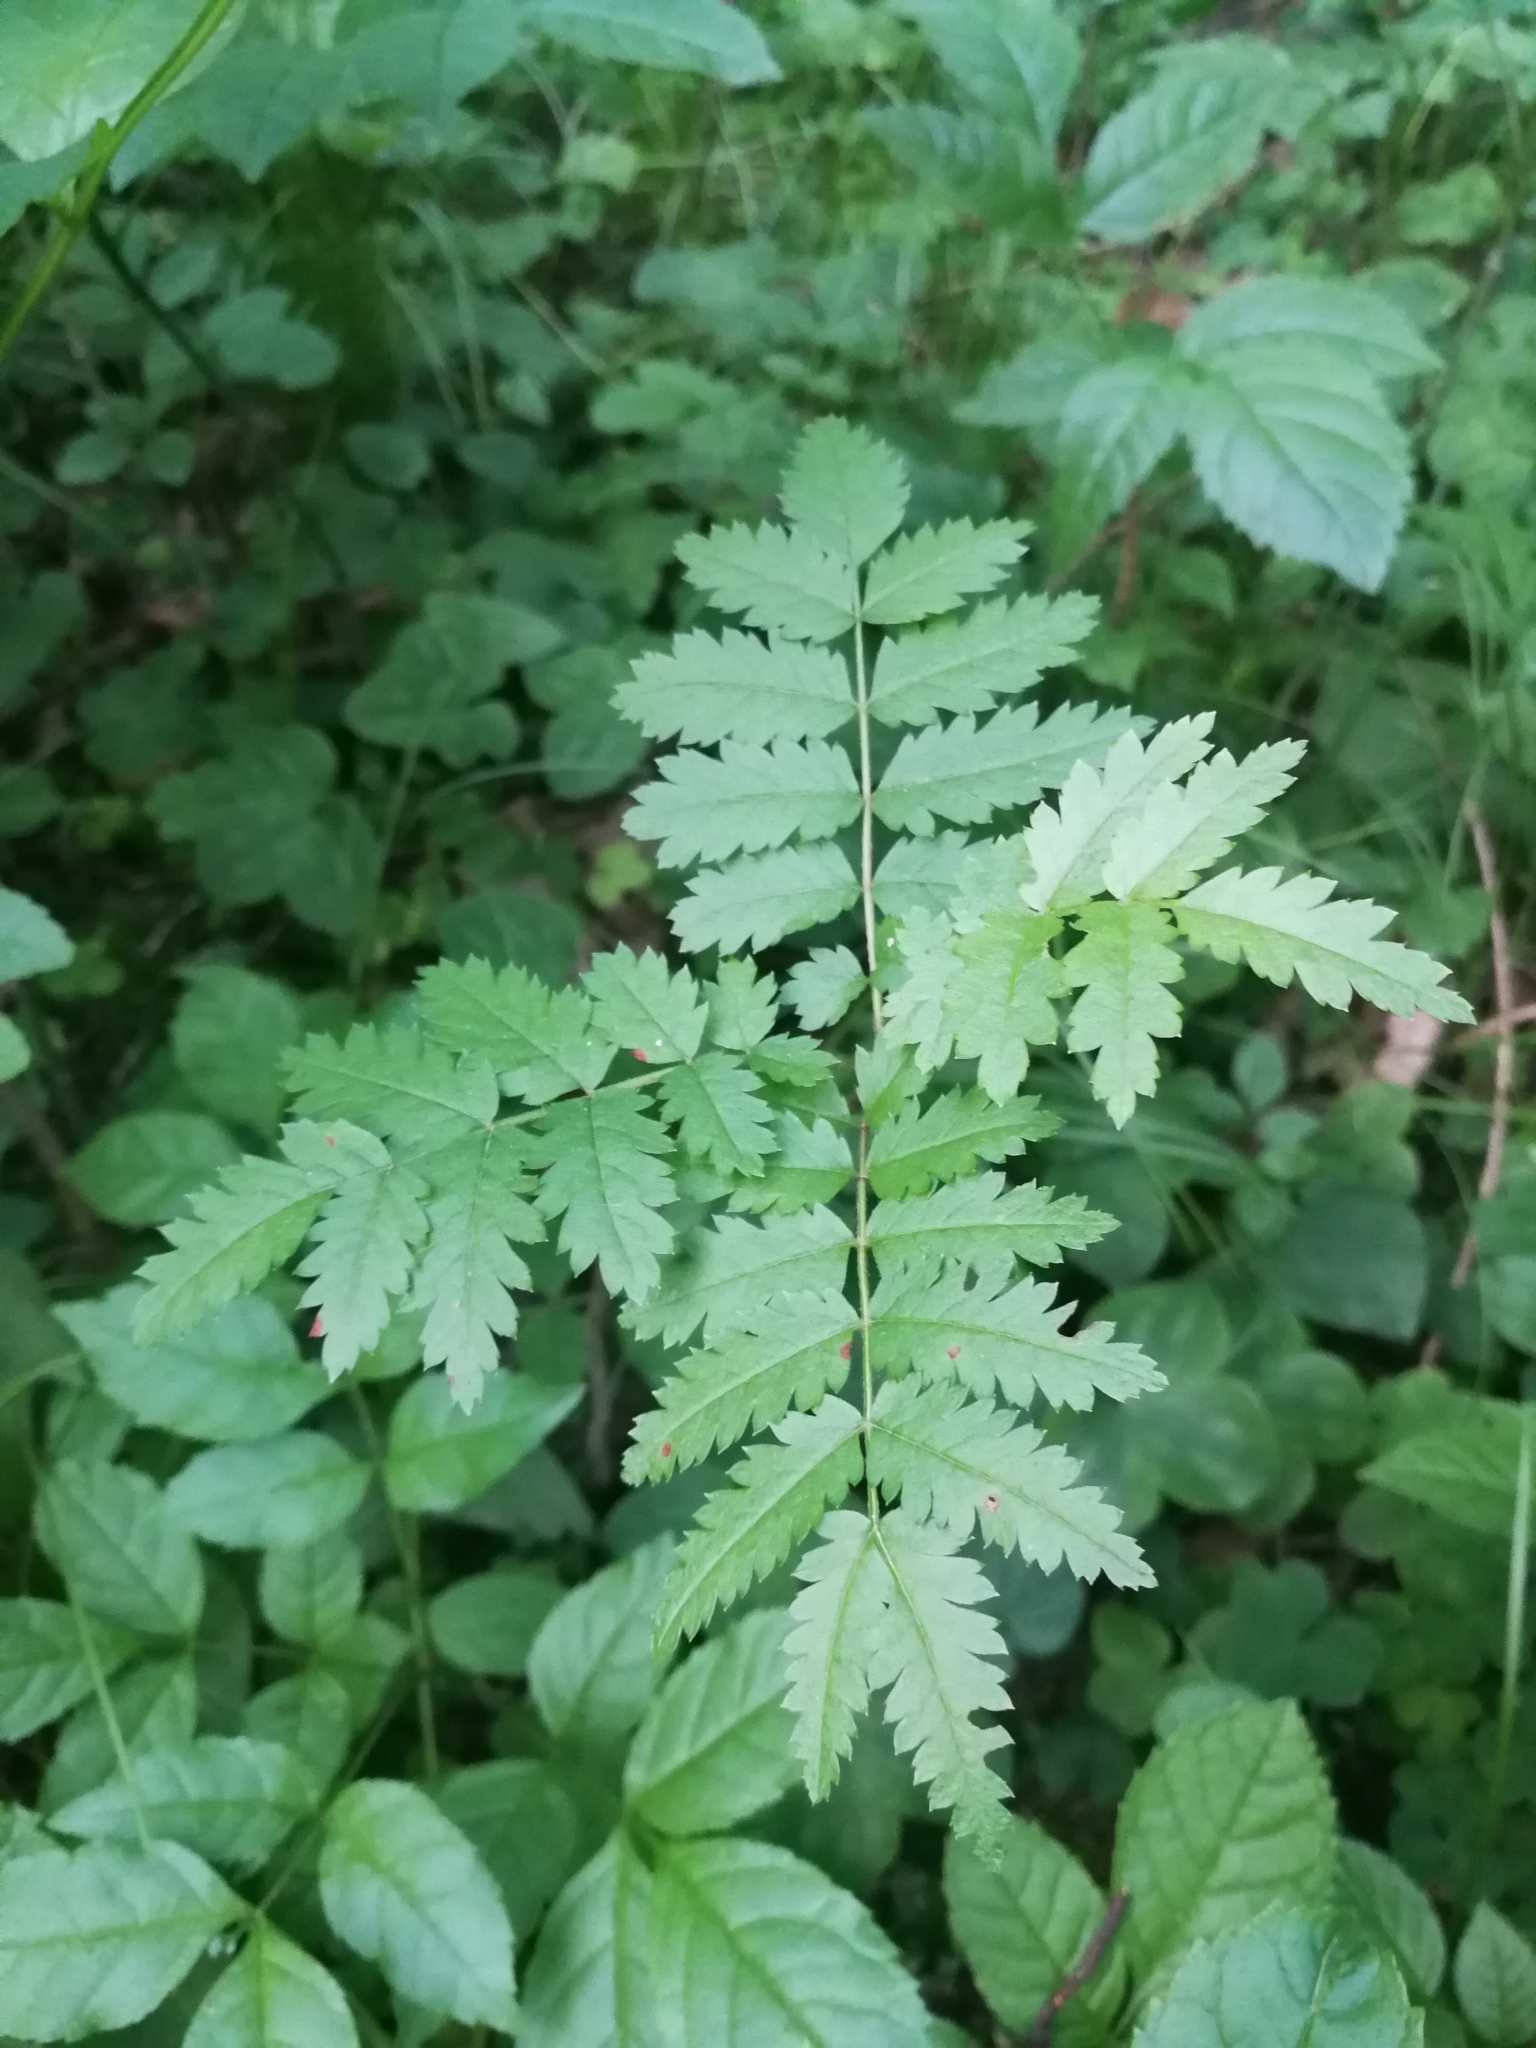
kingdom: Plantae
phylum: Tracheophyta
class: Magnoliopsida
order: Rosales
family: Rosaceae
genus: Sorbus
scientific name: Sorbus aucuparia
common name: Rowan
